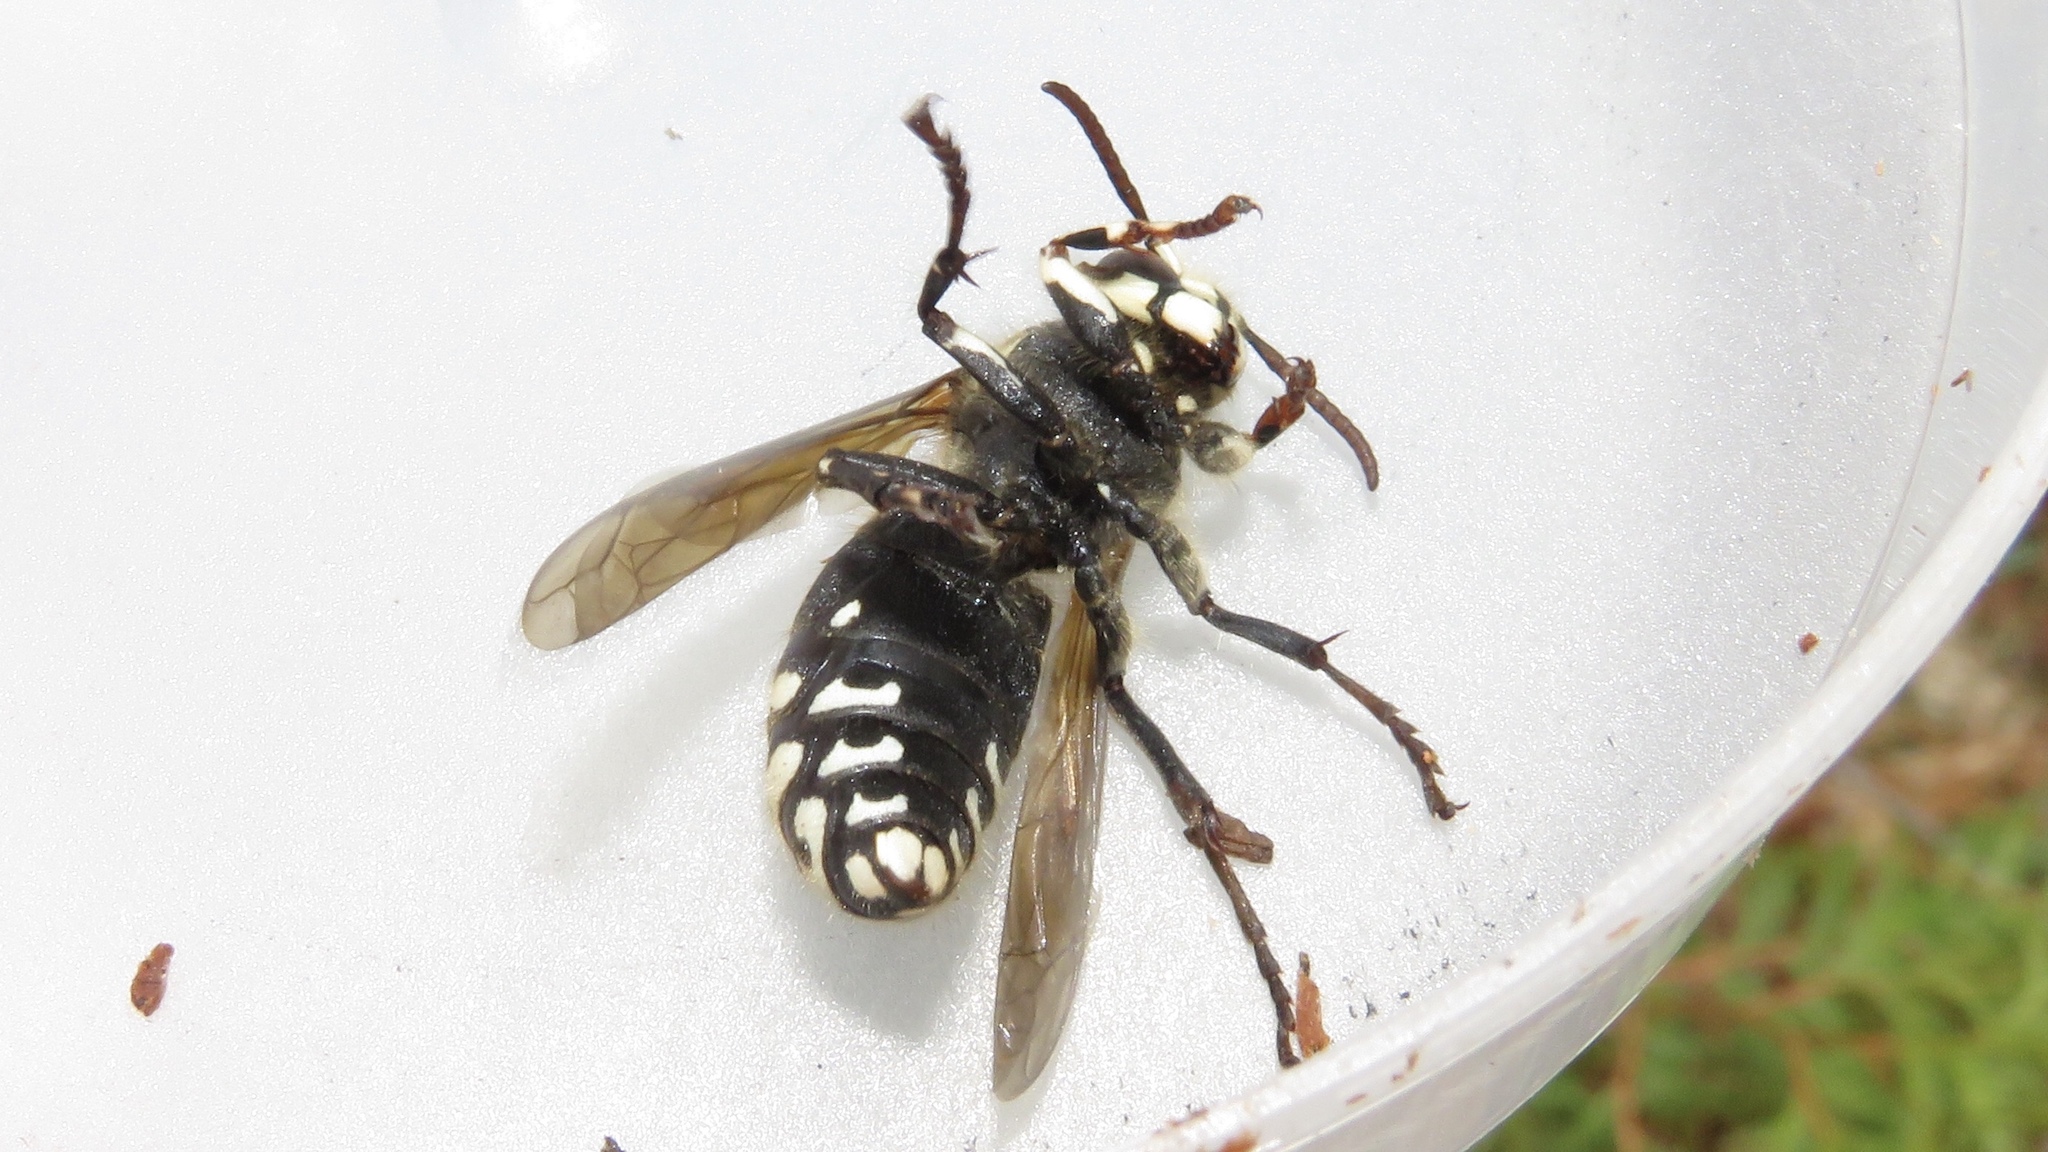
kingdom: Animalia
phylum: Arthropoda
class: Insecta
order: Hymenoptera
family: Vespidae
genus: Dolichovespula
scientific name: Dolichovespula maculata
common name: Bald-faced hornet
